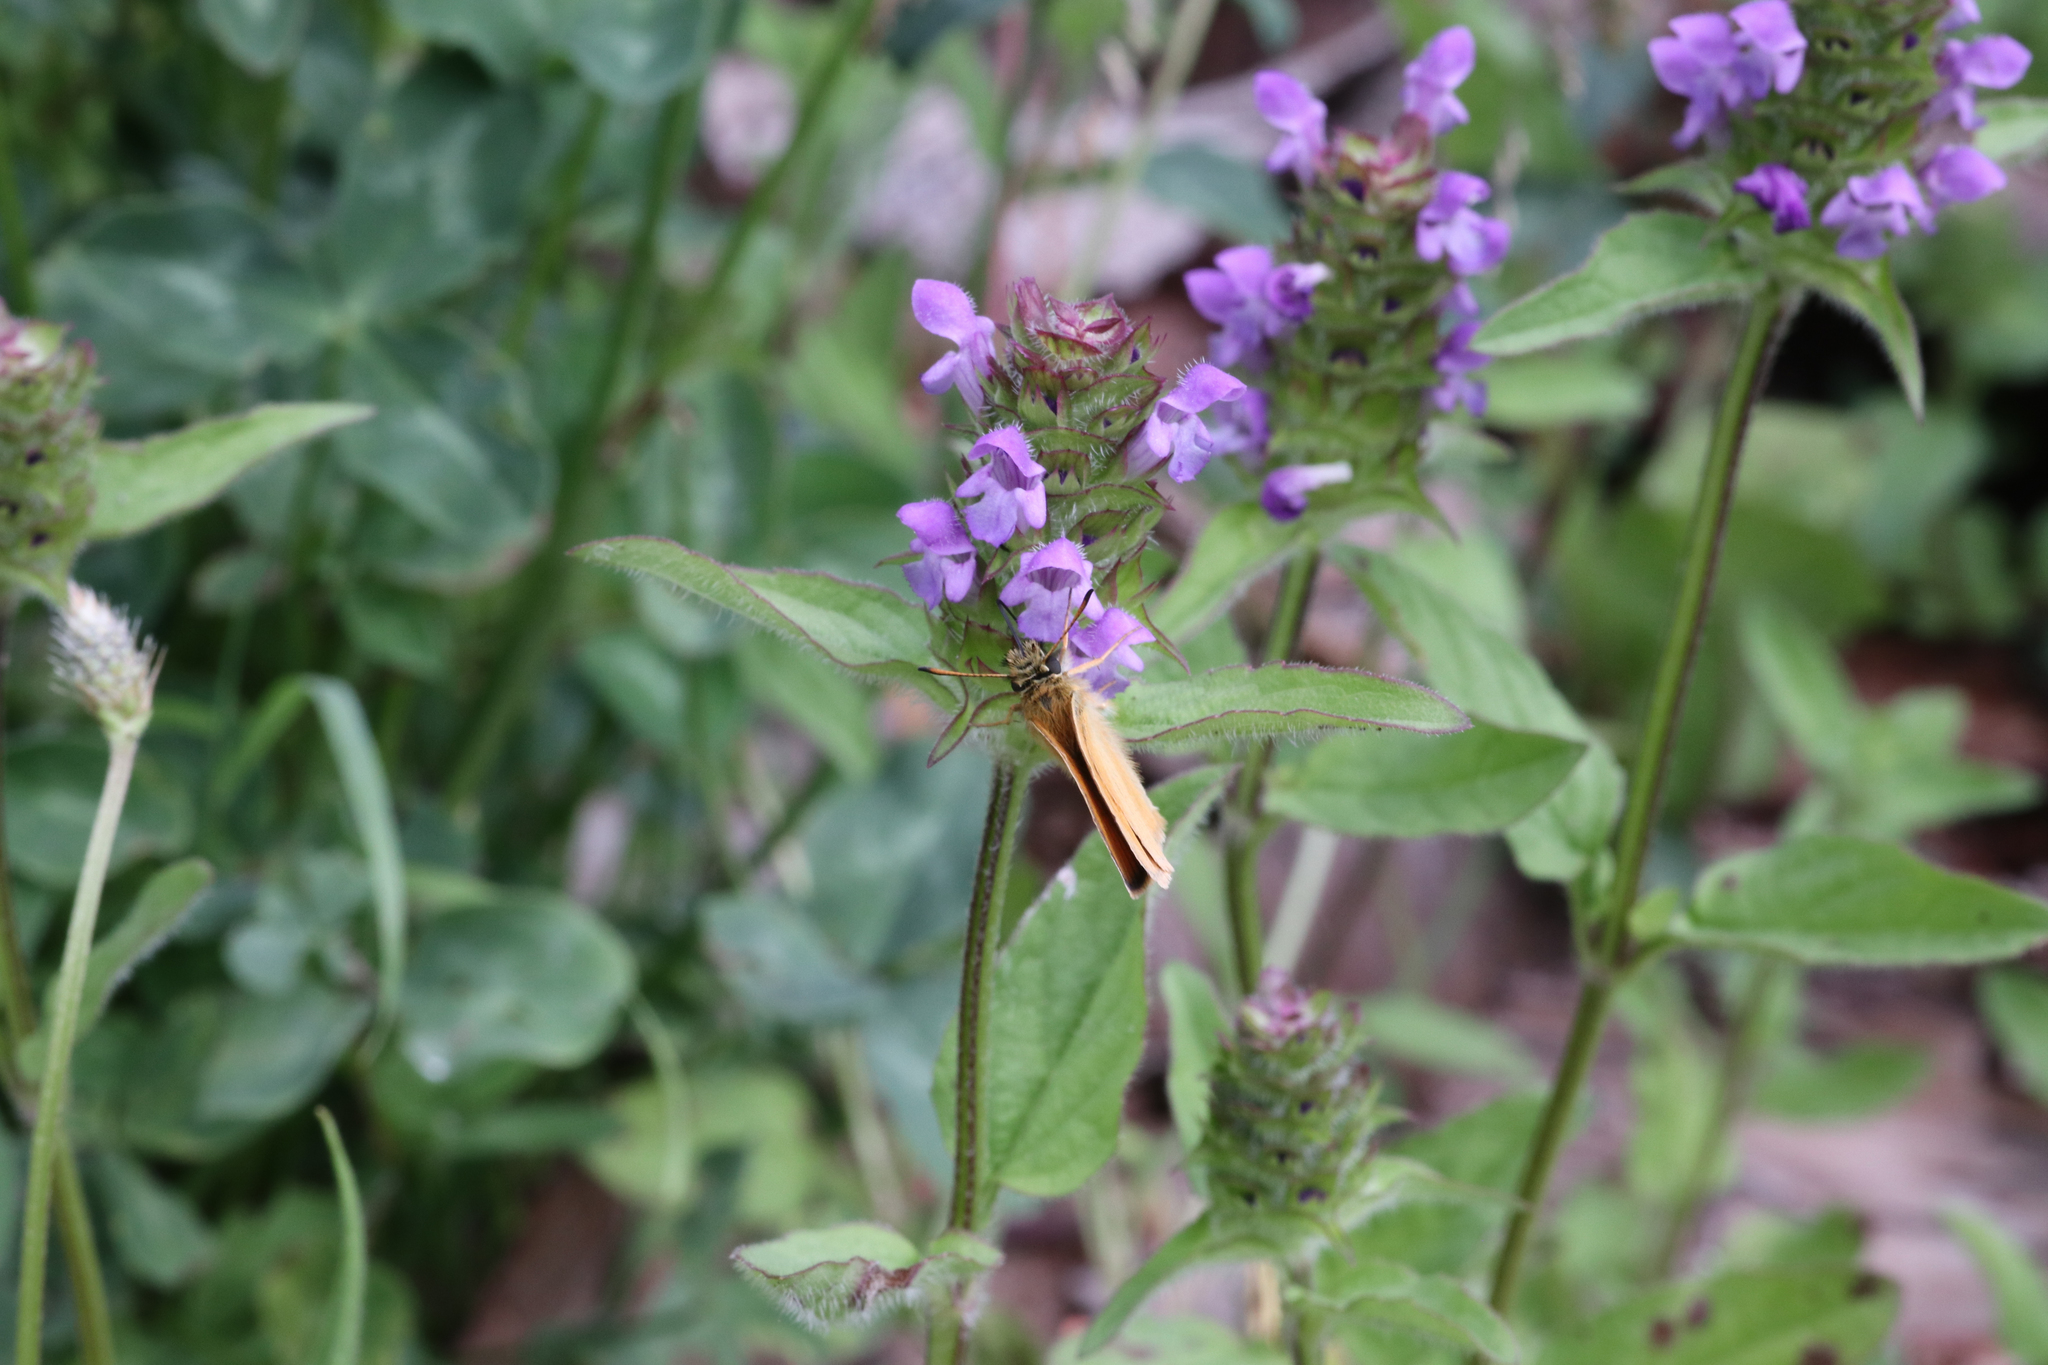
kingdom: Animalia
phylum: Arthropoda
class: Insecta
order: Lepidoptera
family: Hesperiidae
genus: Thymelicus
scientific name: Thymelicus lineola
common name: Essex skipper
